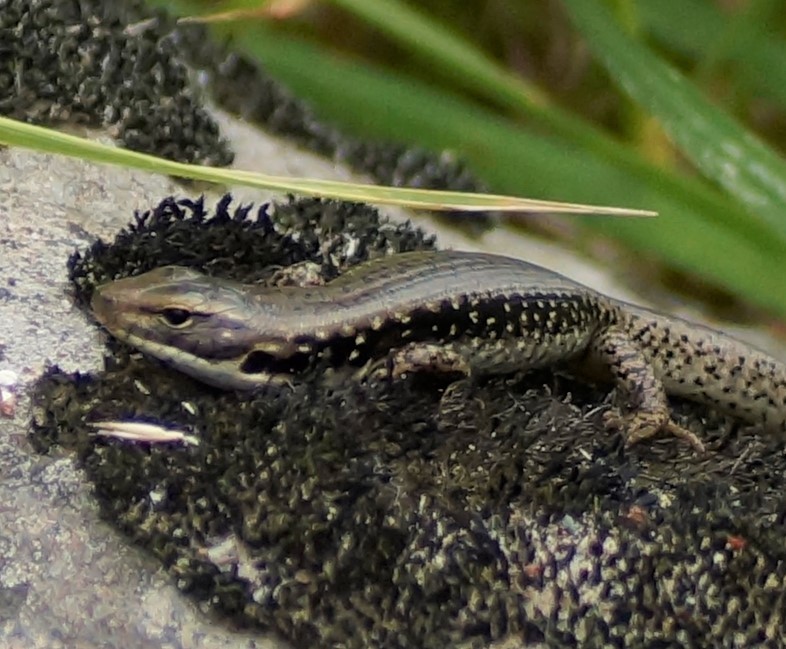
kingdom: Animalia
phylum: Chordata
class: Squamata
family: Scincidae
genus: Eulamprus
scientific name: Eulamprus tympanum
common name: Cool-temperate water-skink
